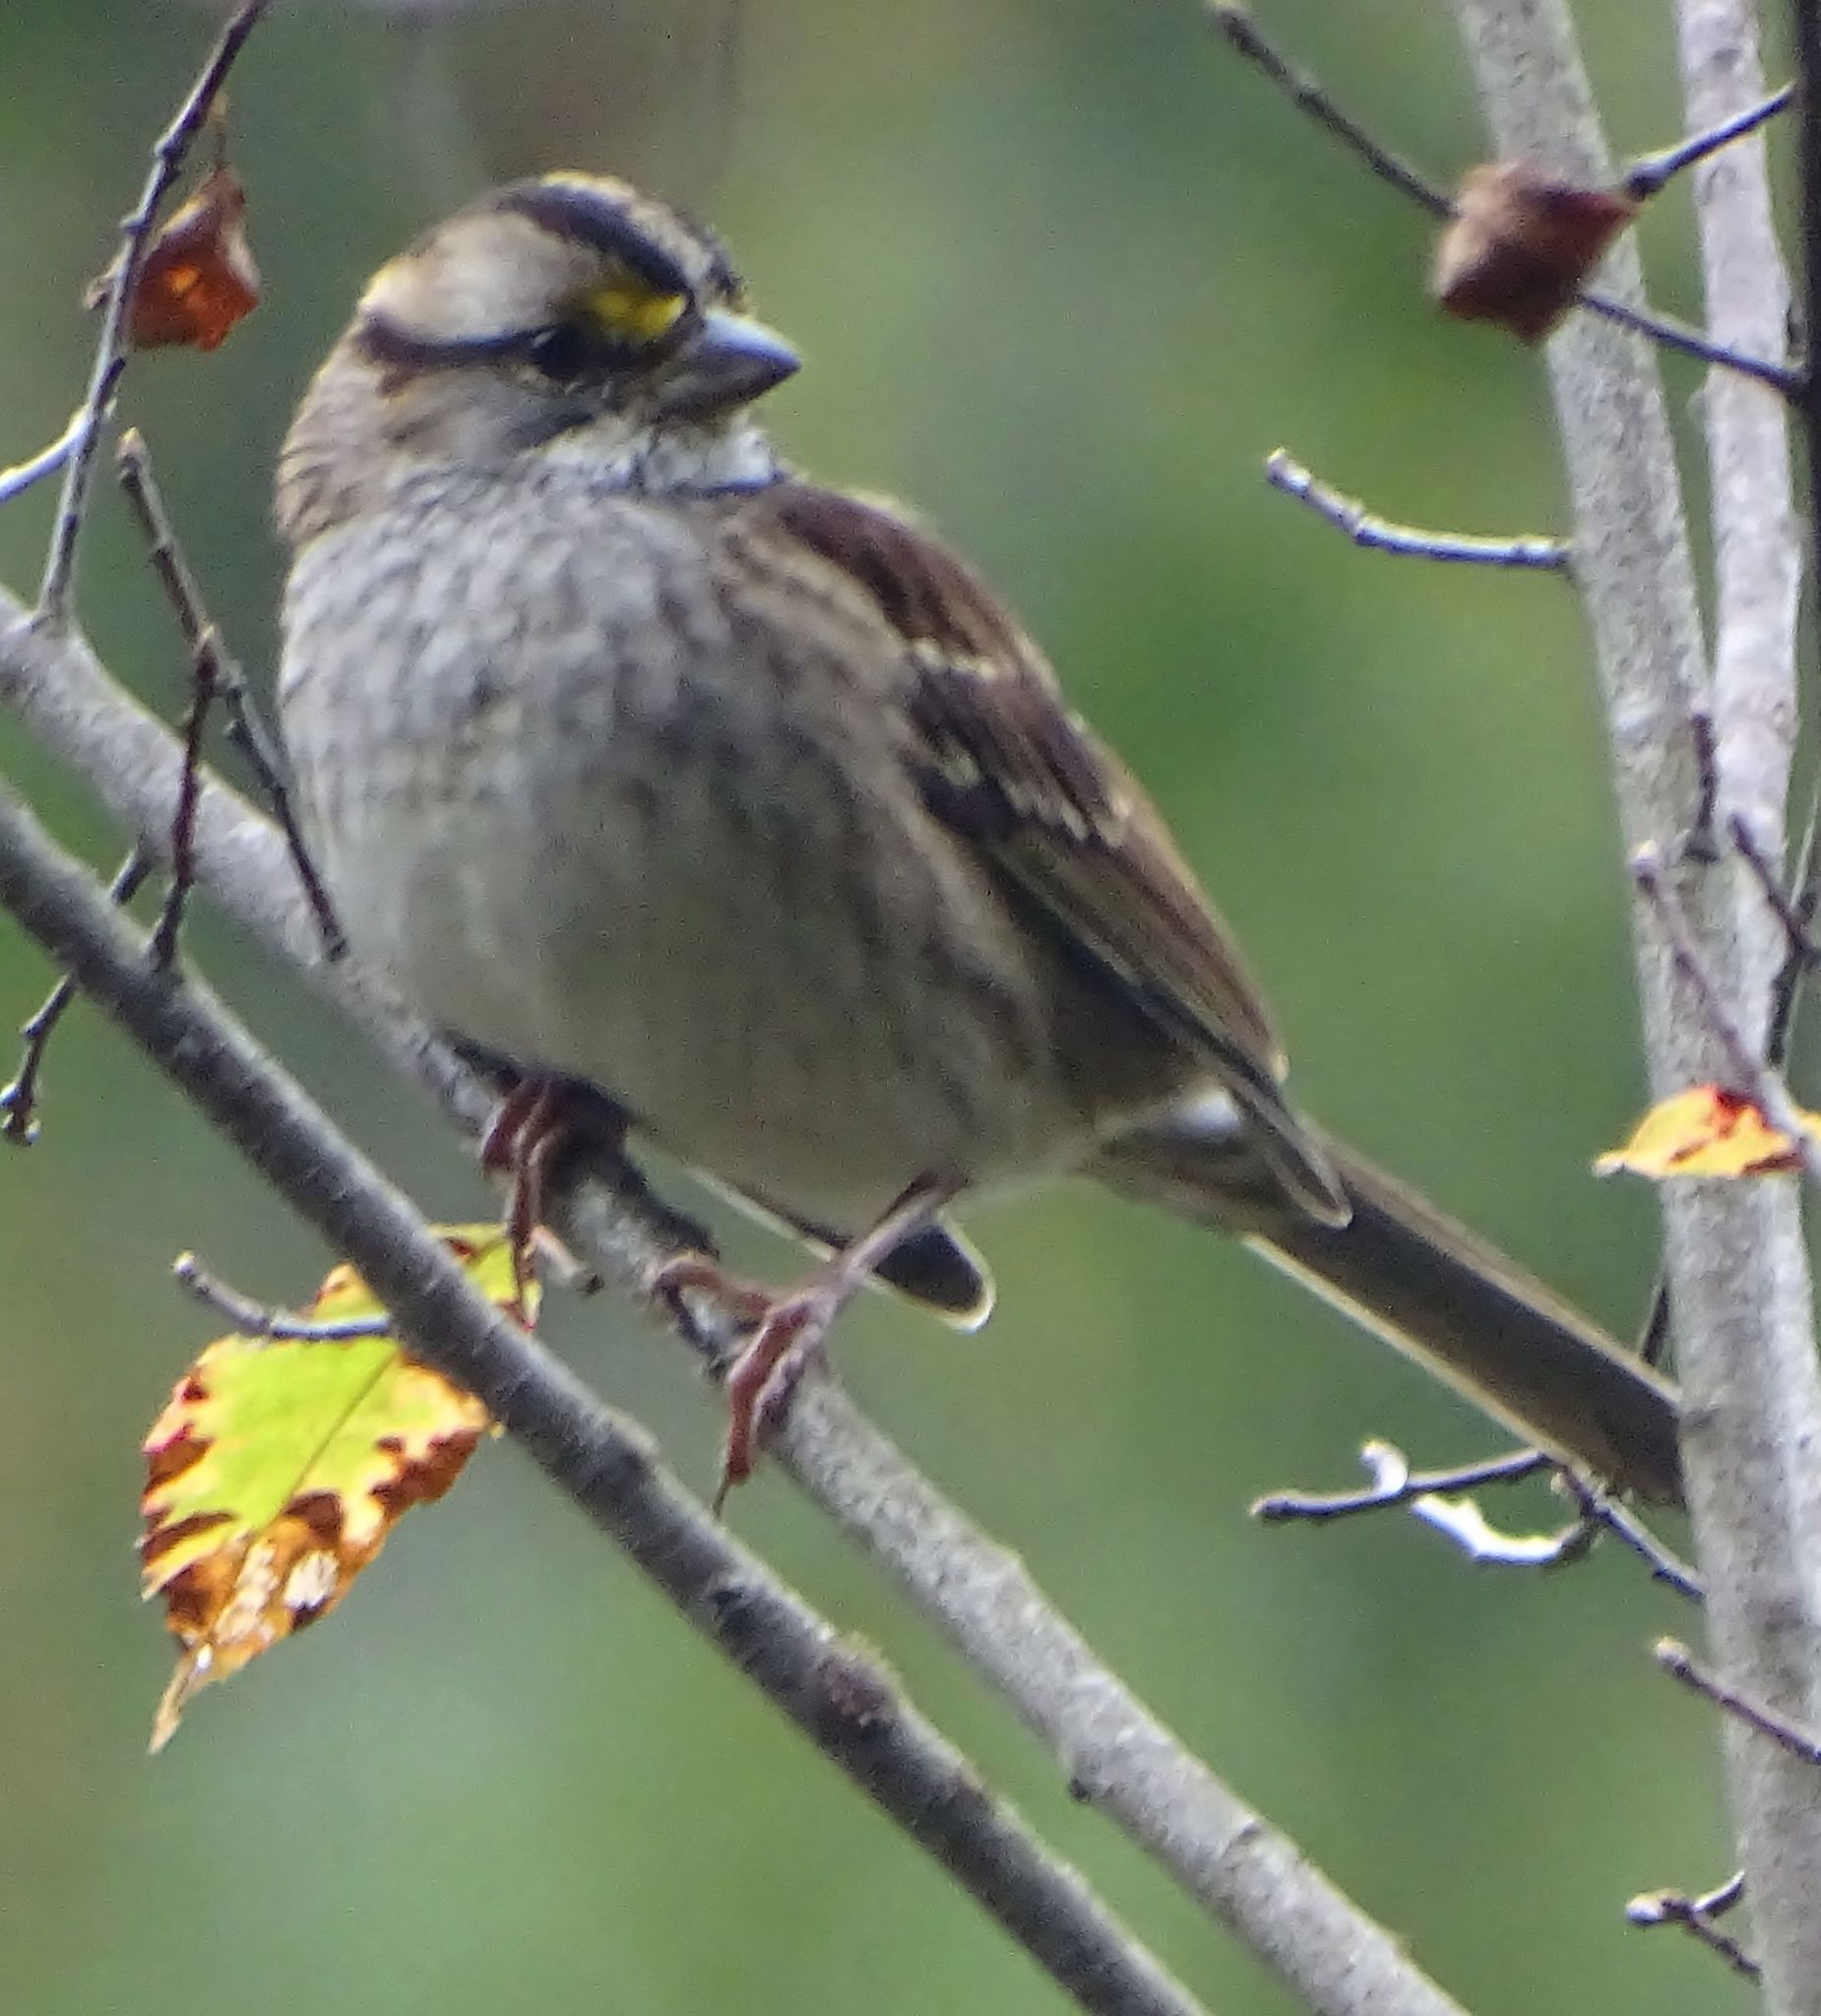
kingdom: Animalia
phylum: Chordata
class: Aves
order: Passeriformes
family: Passerellidae
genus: Zonotrichia
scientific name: Zonotrichia albicollis
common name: White-throated sparrow
